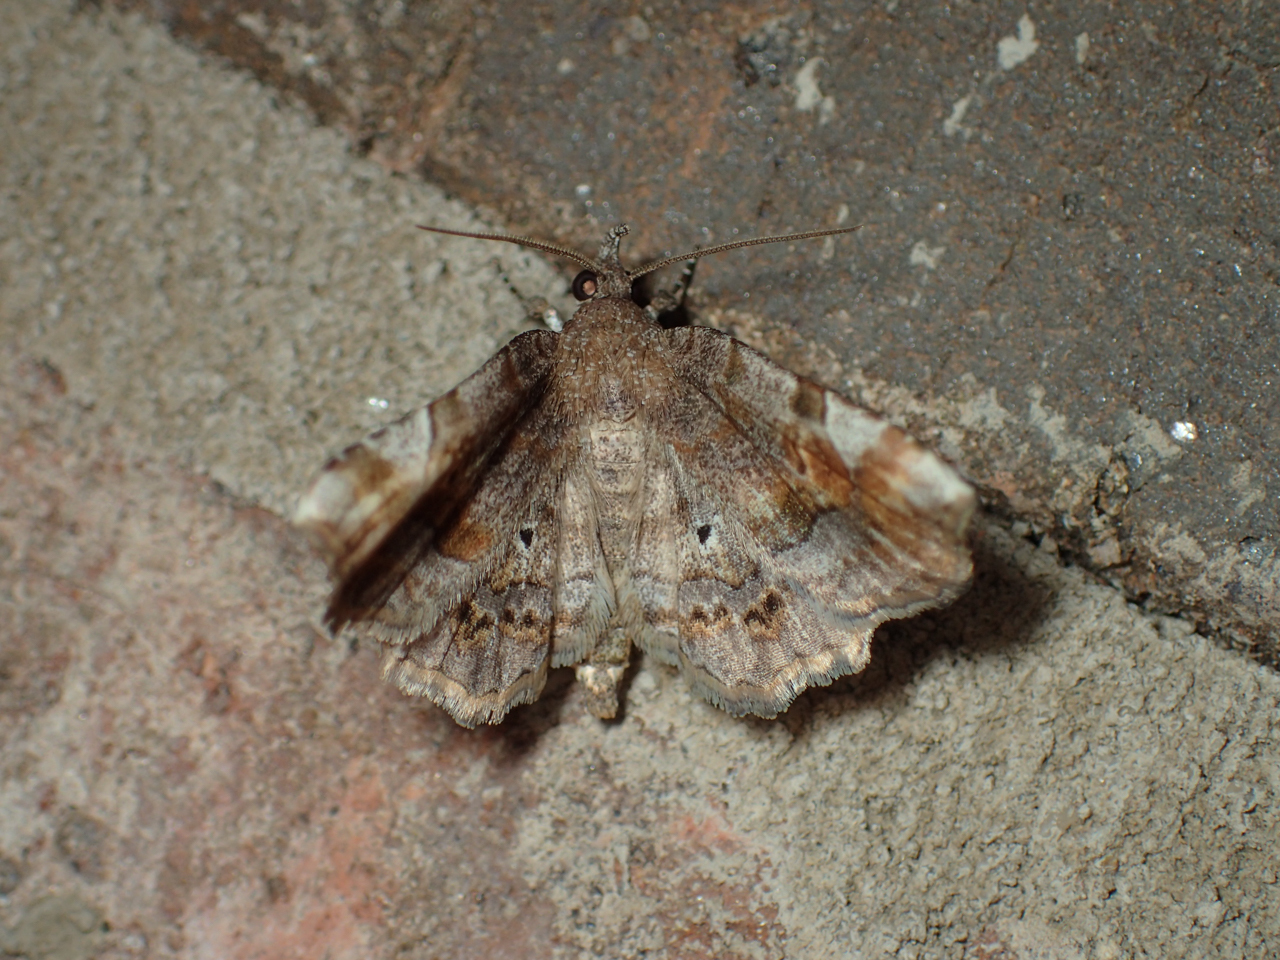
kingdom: Animalia
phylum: Arthropoda
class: Insecta
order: Lepidoptera
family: Erebidae
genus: Pangrapta
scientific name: Pangrapta decoralis
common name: Decorated owlet
